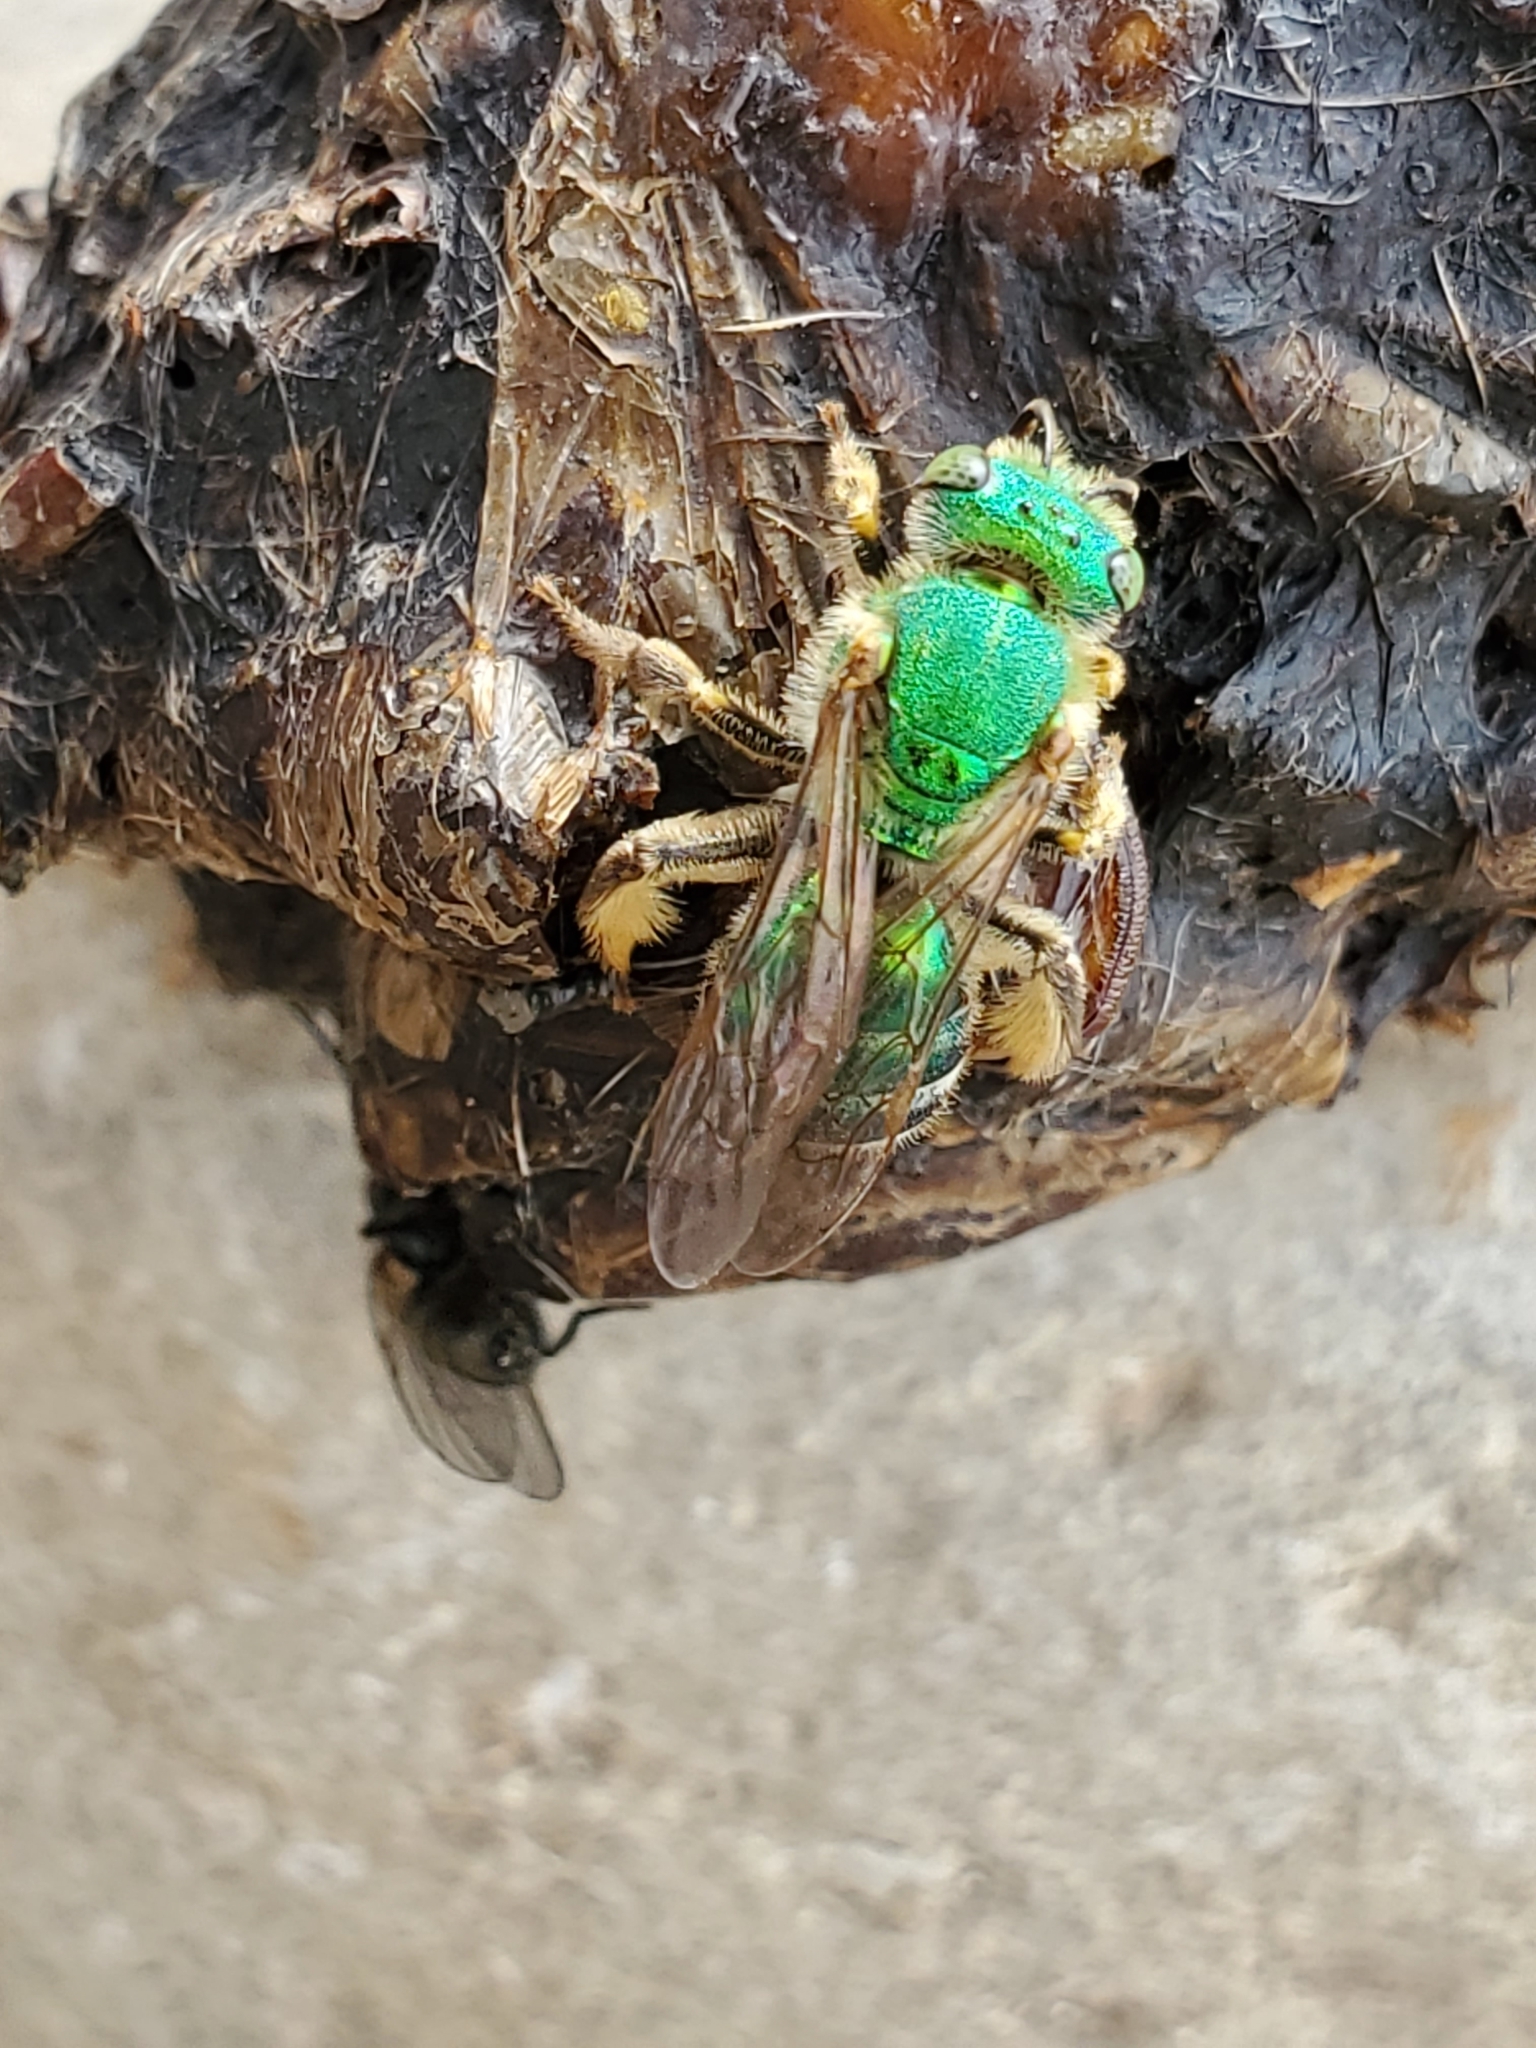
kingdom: Animalia
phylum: Arthropoda
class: Insecta
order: Hymenoptera
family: Halictidae
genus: Agapostemon
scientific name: Agapostemon sericeus
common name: Silky striped sweat bee
